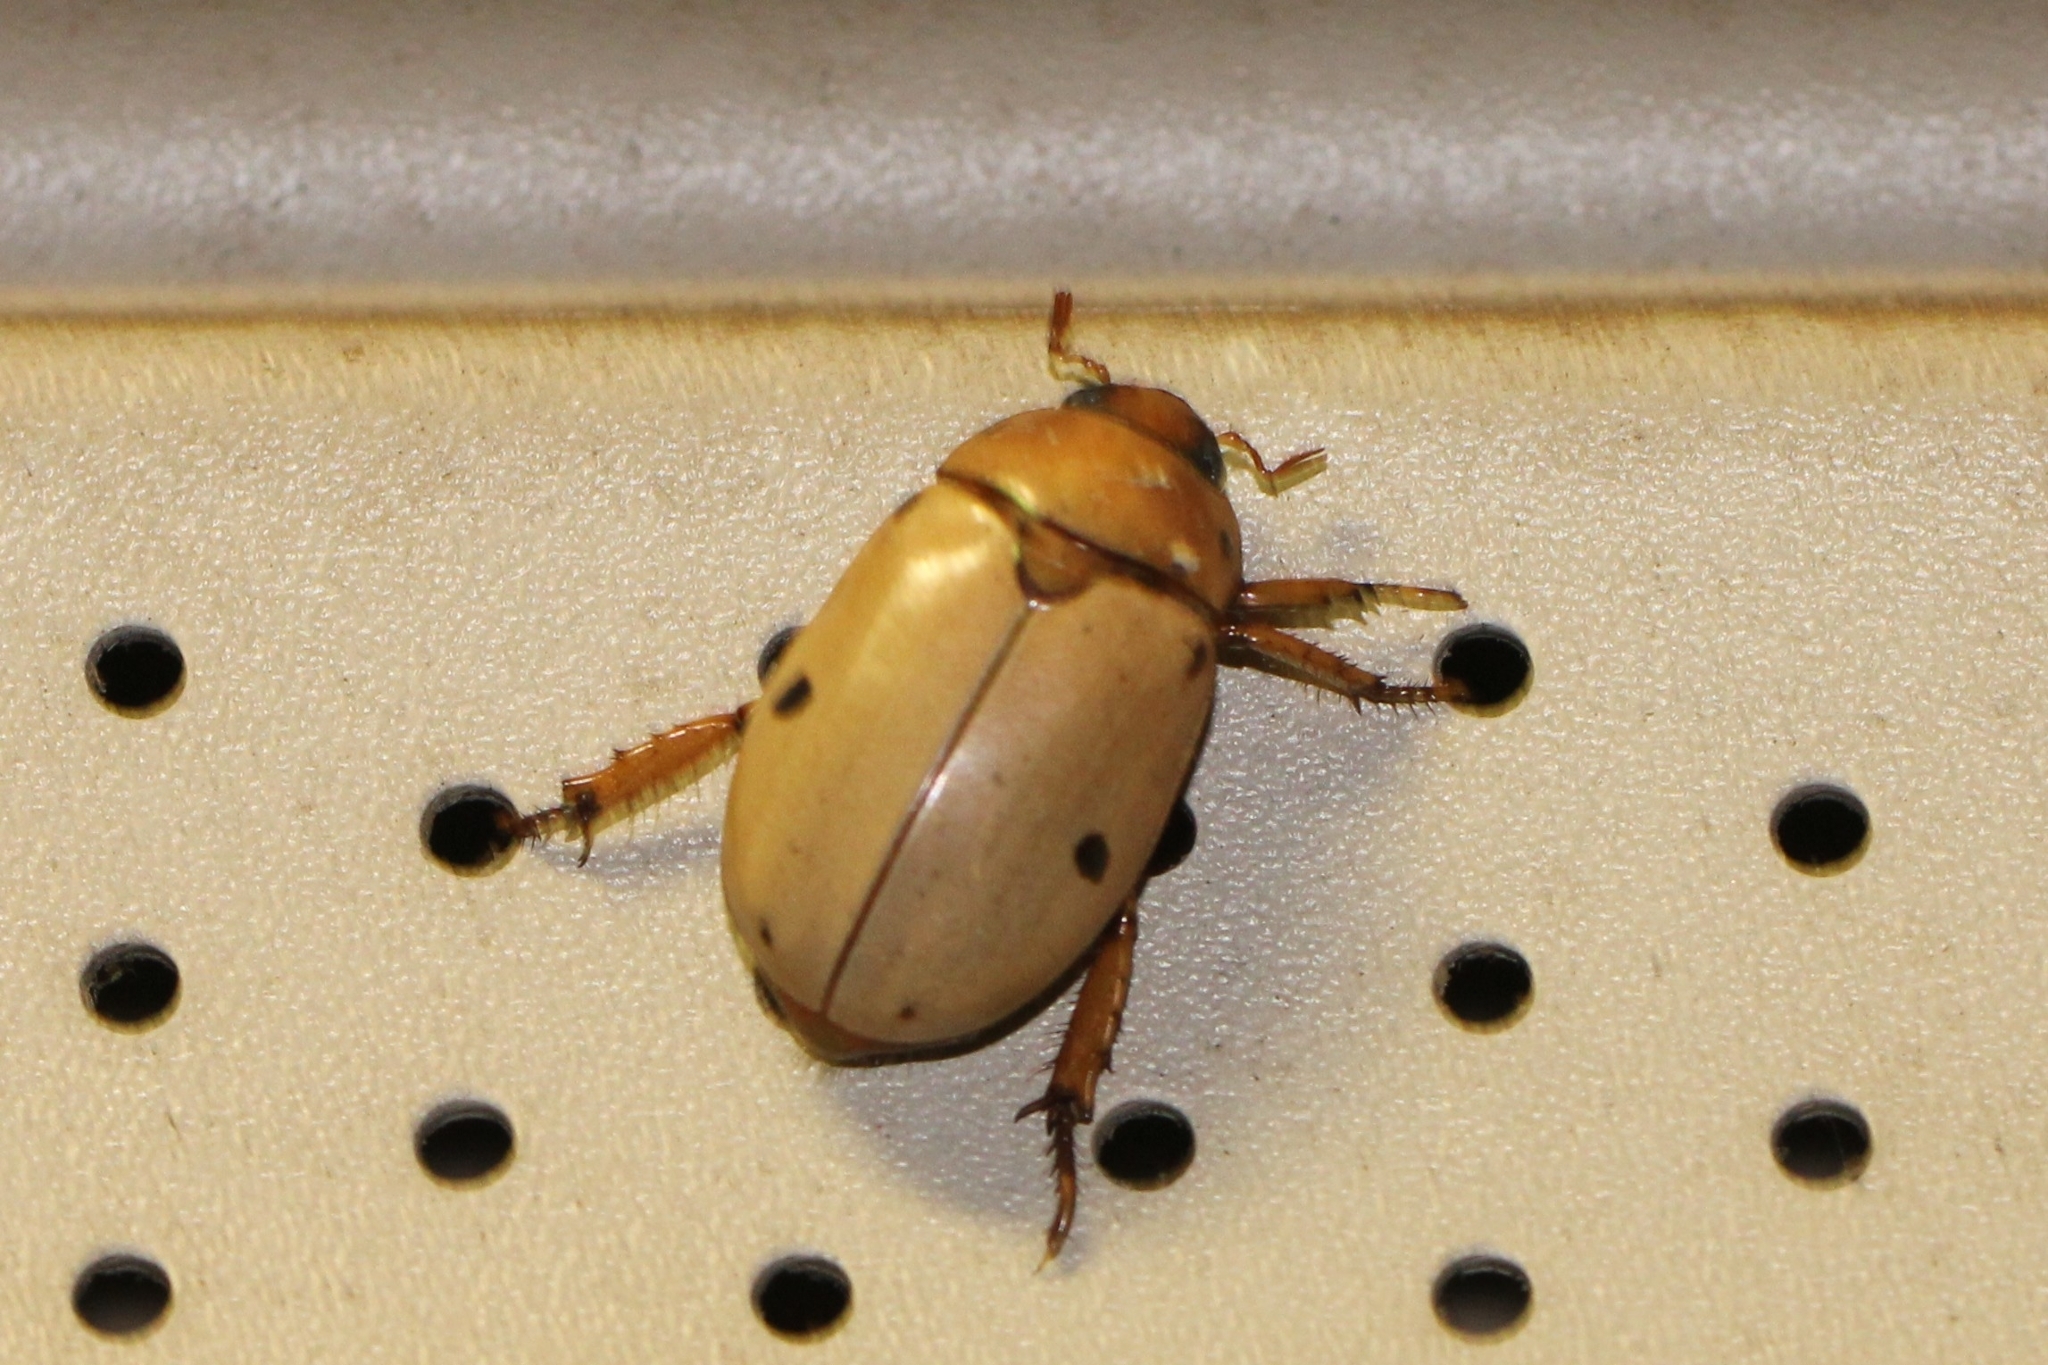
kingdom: Animalia
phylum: Arthropoda
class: Insecta
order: Coleoptera
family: Scarabaeidae
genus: Pelidnota
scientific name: Pelidnota punctata
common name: Grapevine beetle
